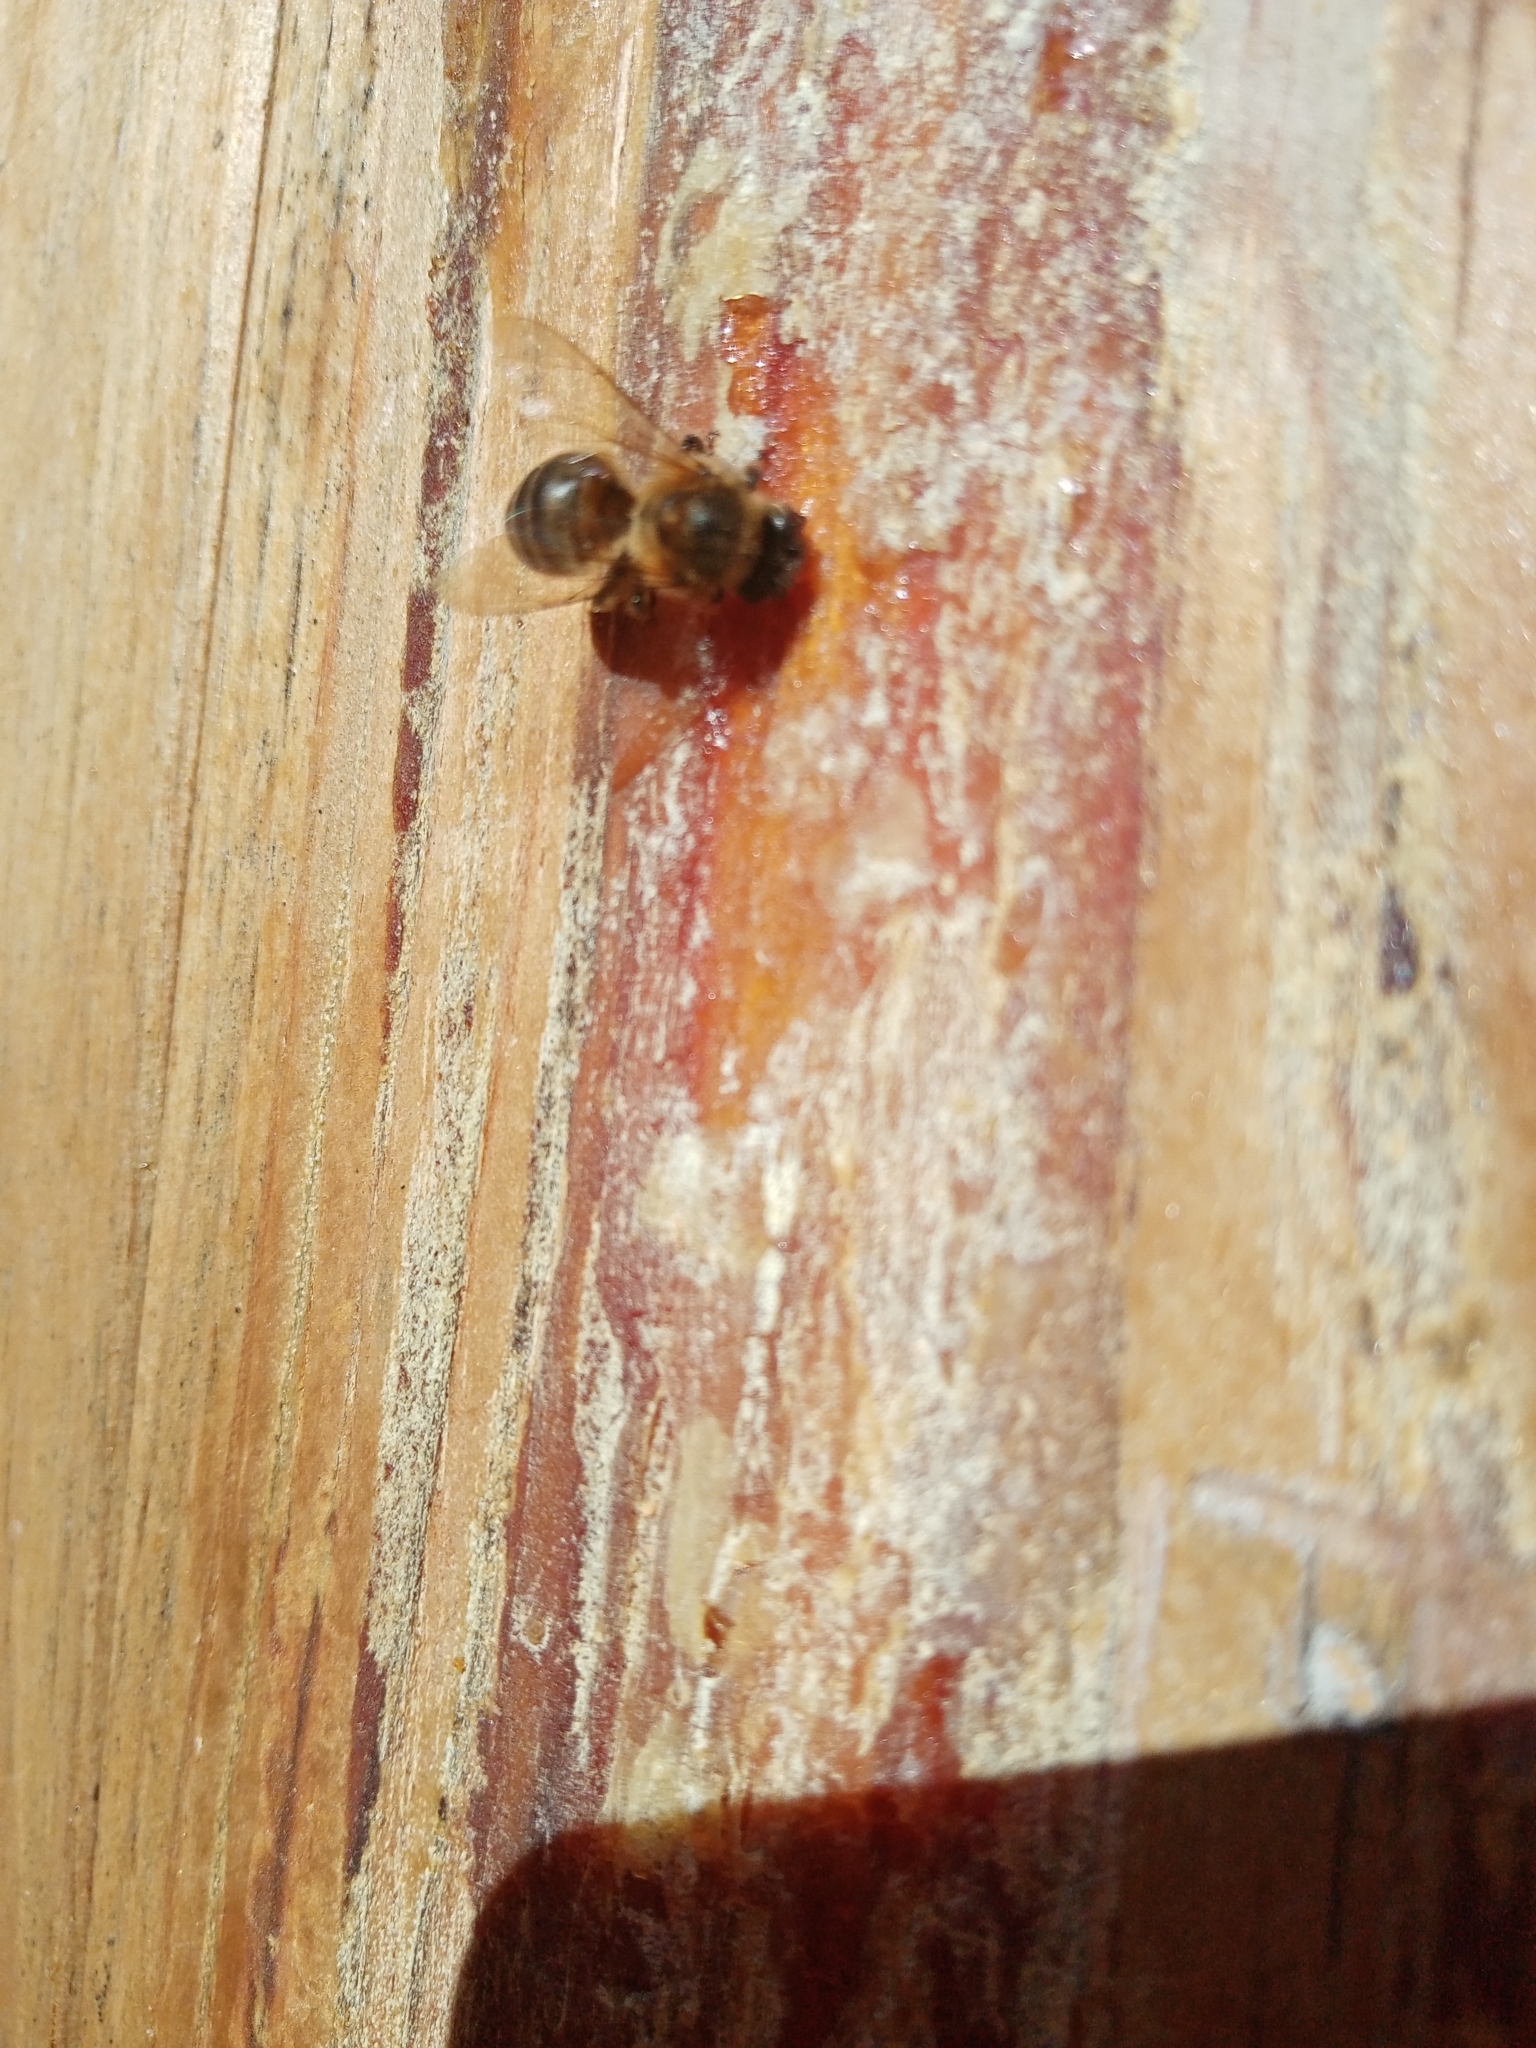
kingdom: Animalia
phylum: Arthropoda
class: Insecta
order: Hymenoptera
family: Apidae
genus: Apis
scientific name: Apis mellifera
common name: Honey bee
